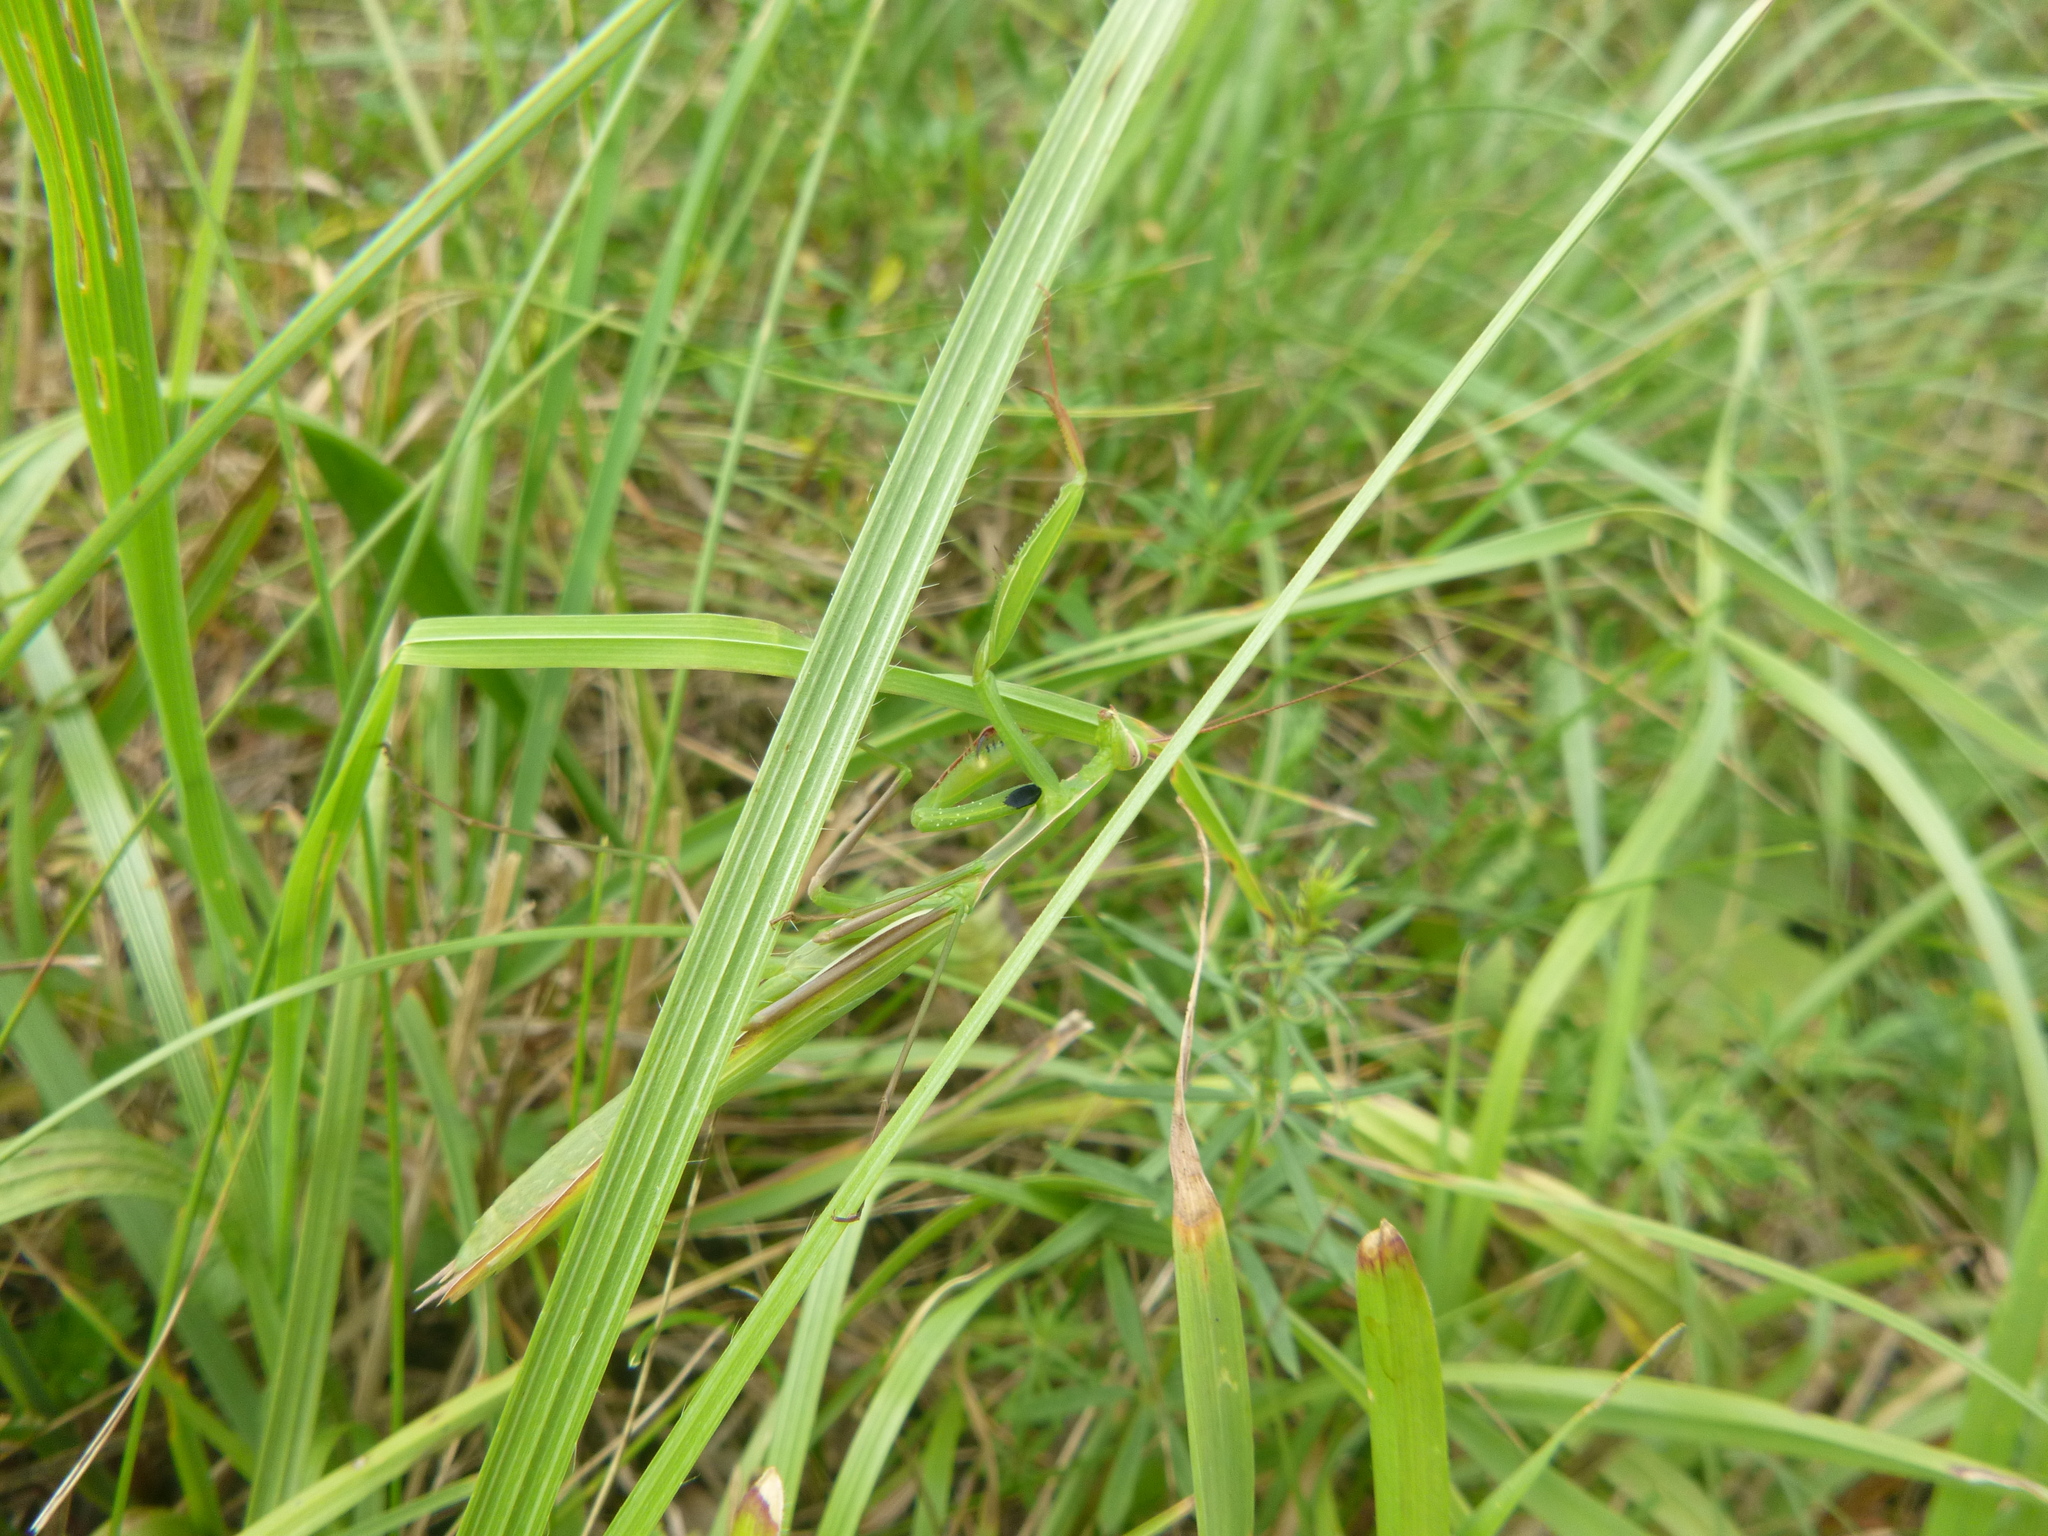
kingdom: Animalia
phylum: Arthropoda
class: Insecta
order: Mantodea
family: Mantidae
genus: Mantis
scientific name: Mantis religiosa
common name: Praying mantis
